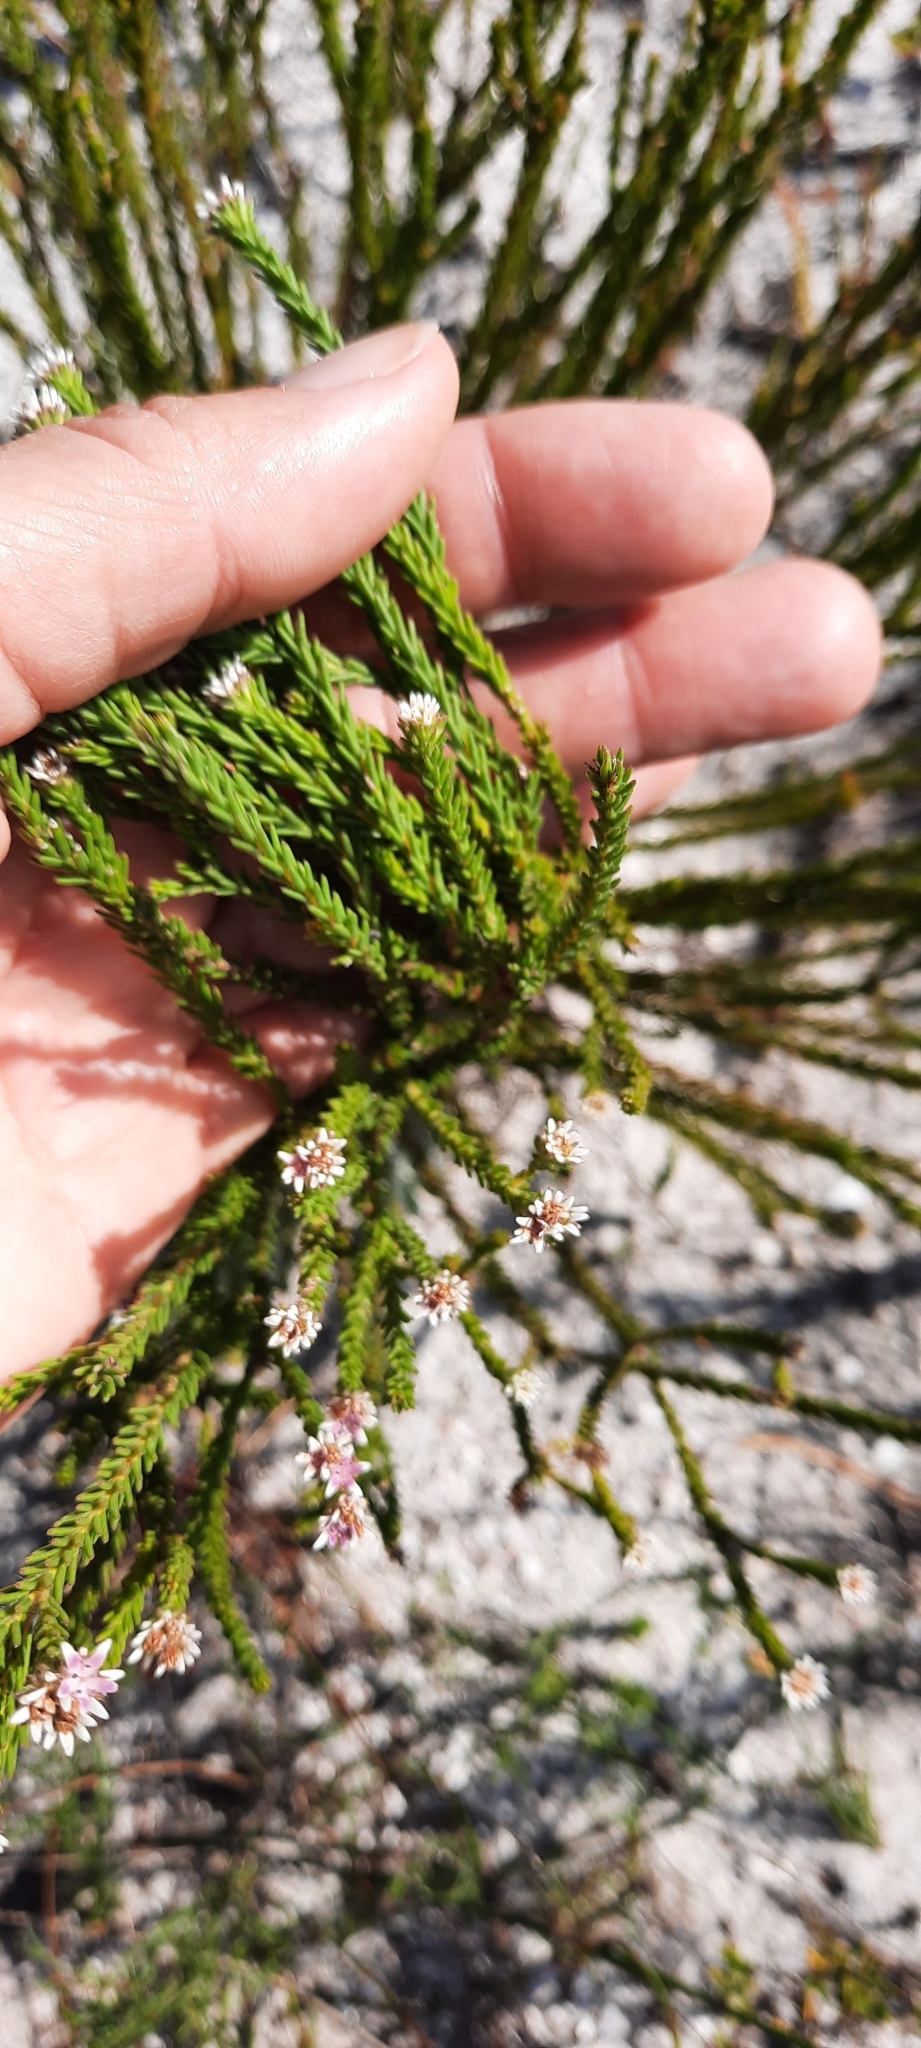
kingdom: Plantae
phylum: Tracheophyta
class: Magnoliopsida
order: Bruniales
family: Bruniaceae
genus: Staavia
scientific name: Staavia radiata
